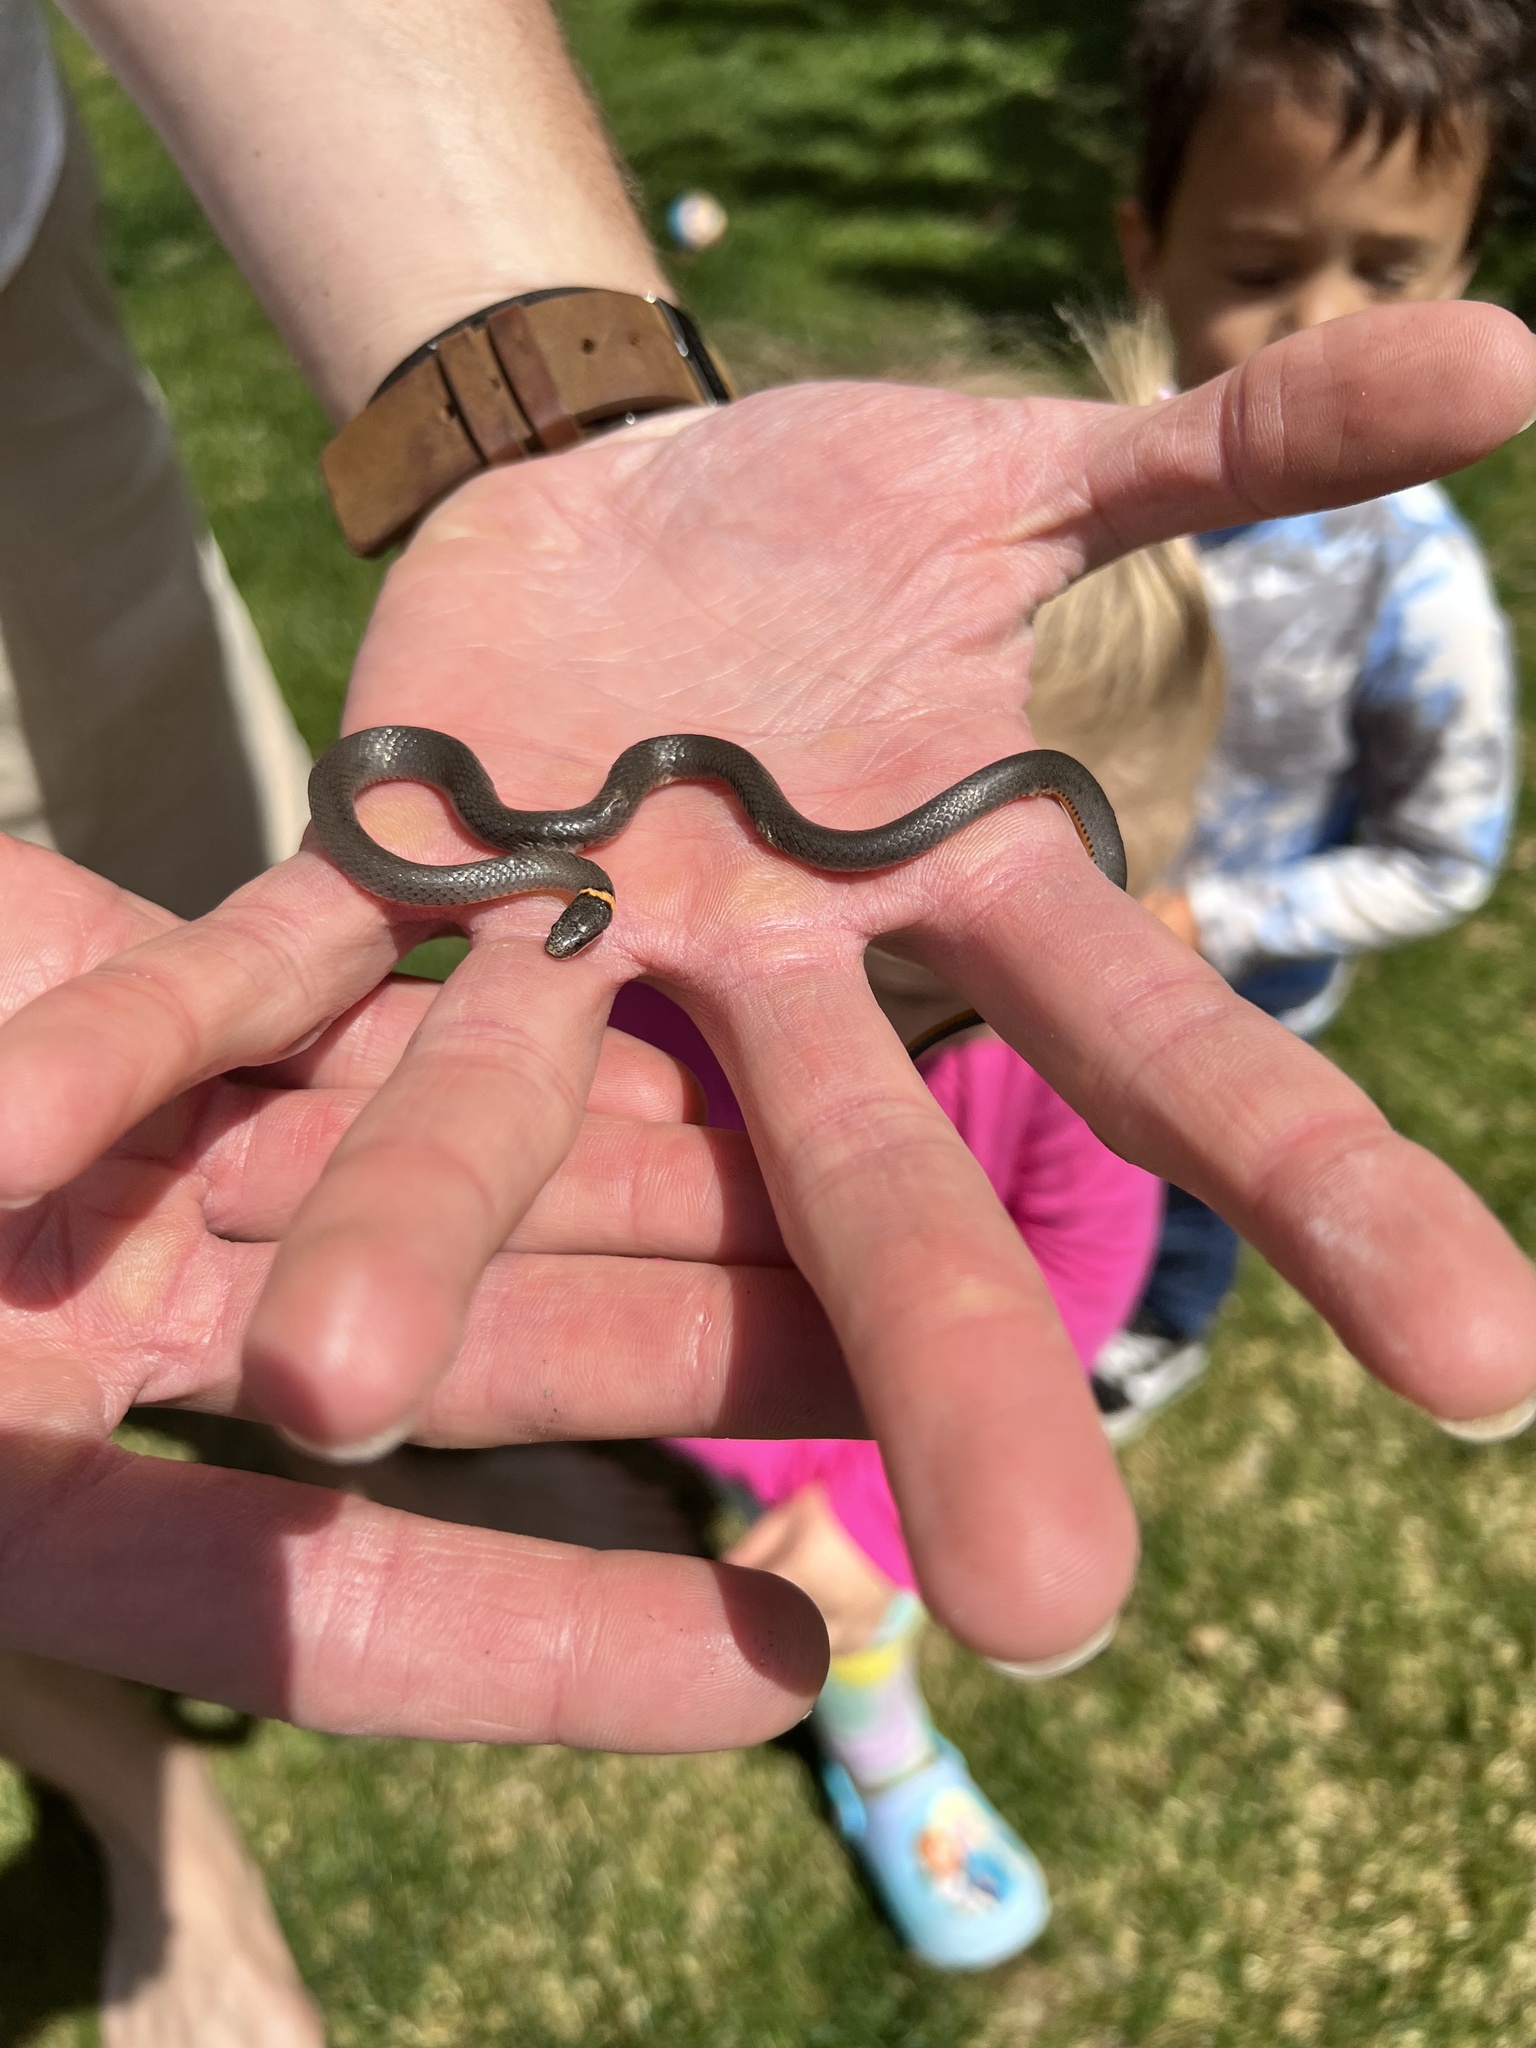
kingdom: Animalia
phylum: Chordata
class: Squamata
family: Colubridae
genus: Diadophis
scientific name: Diadophis punctatus
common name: Ringneck snake
